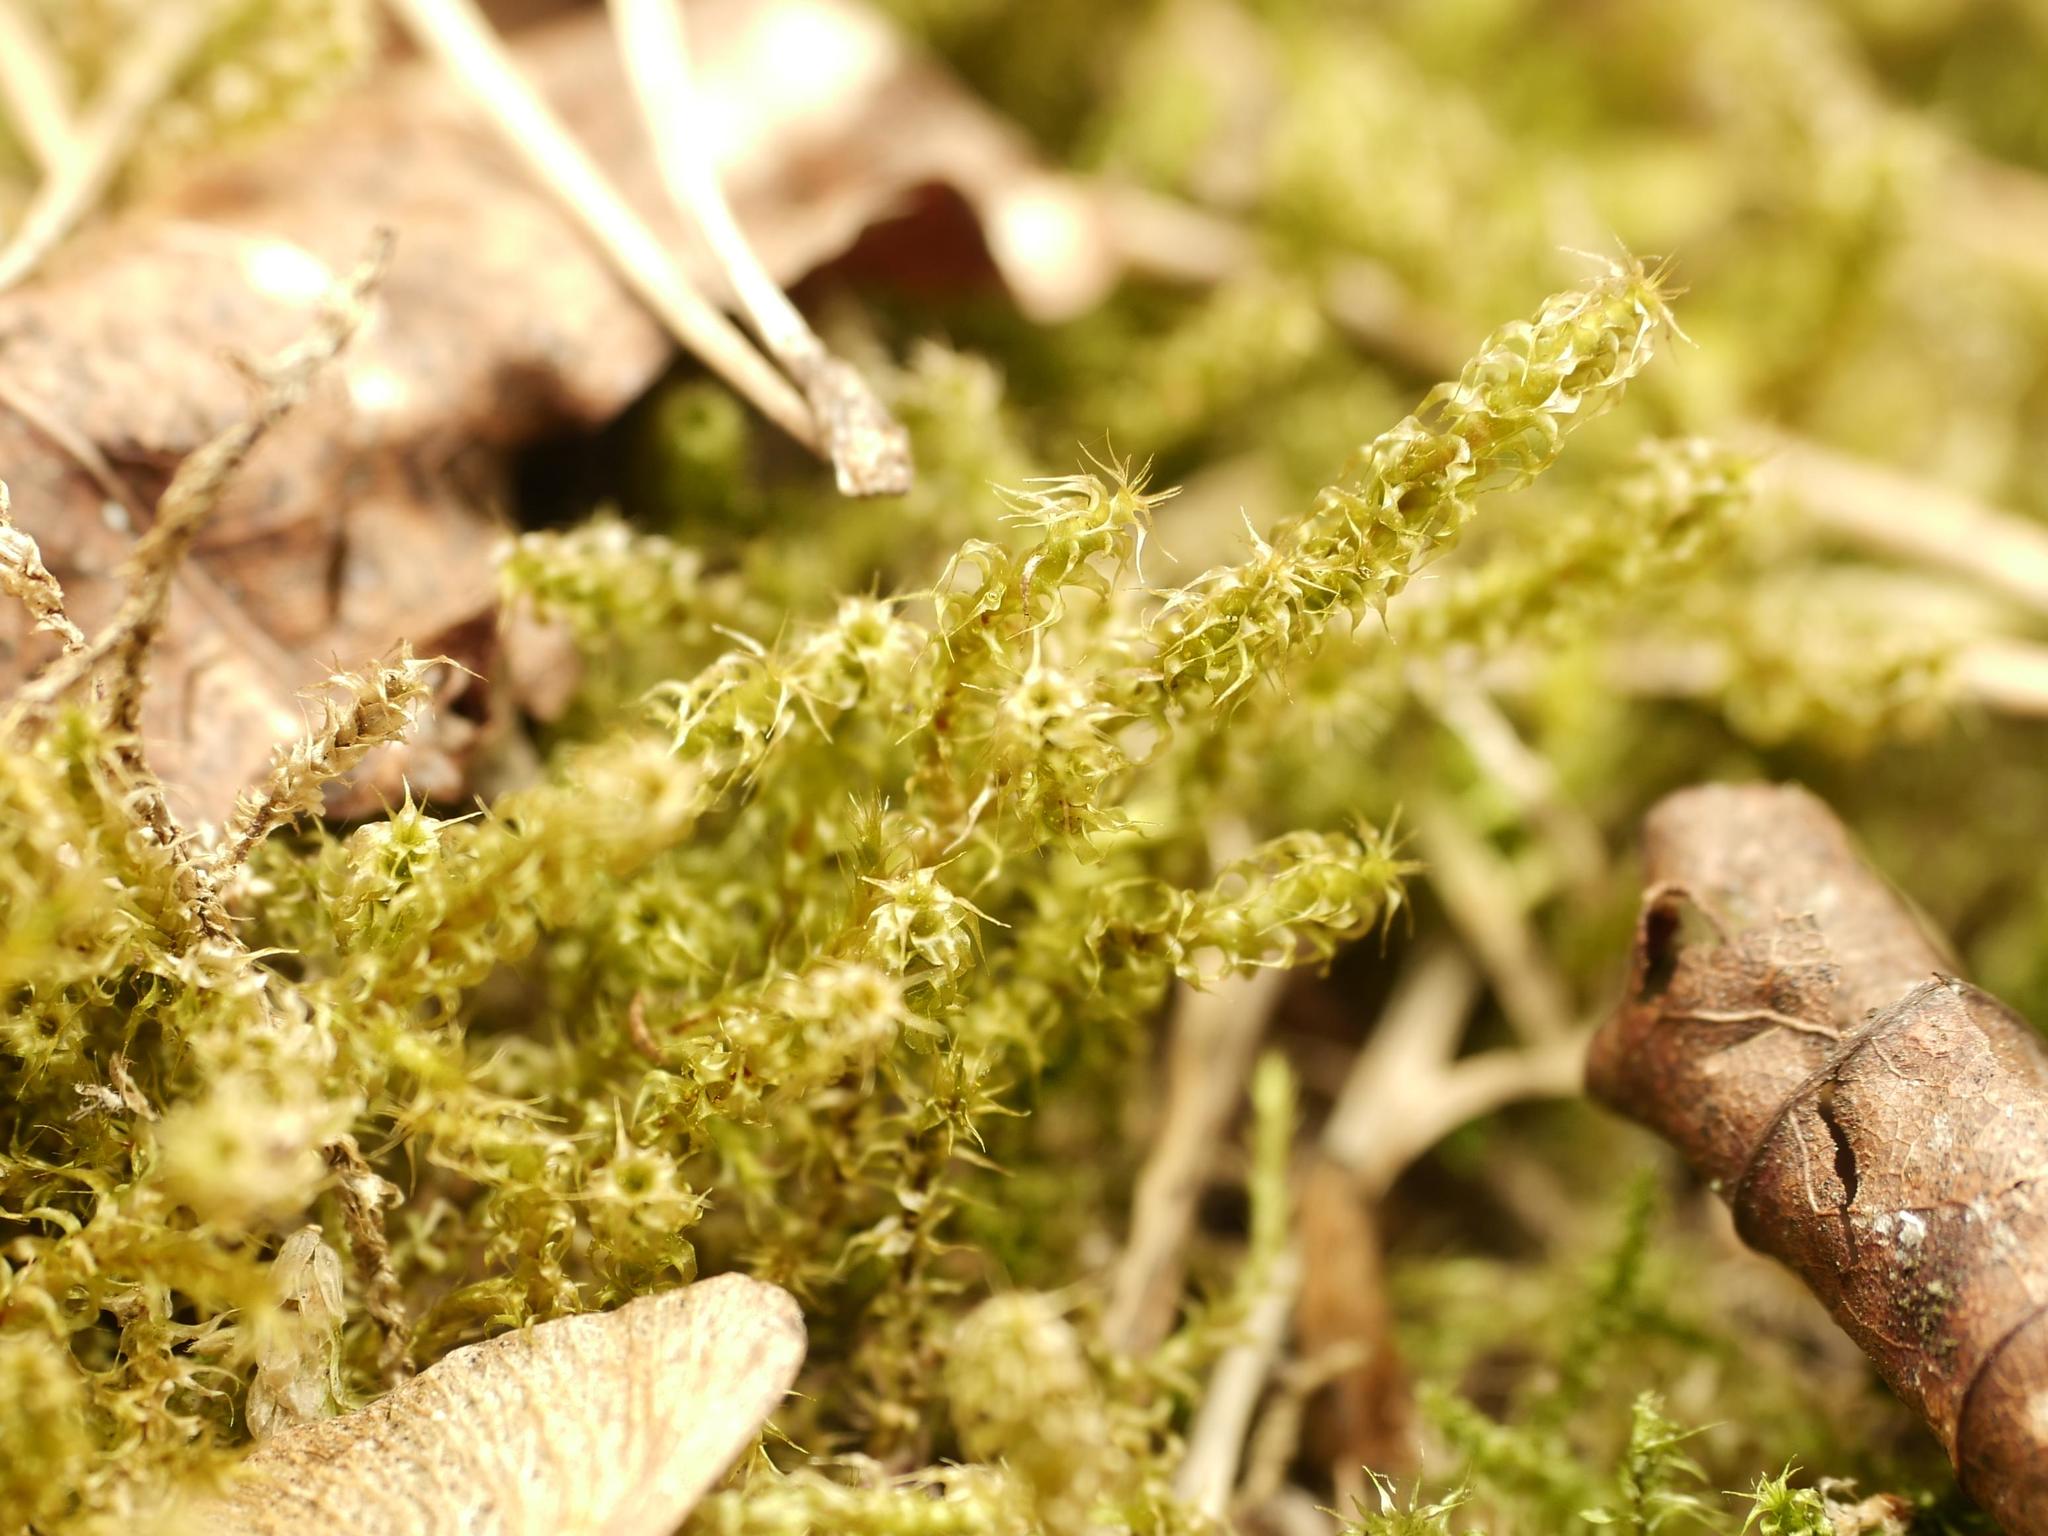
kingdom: Plantae
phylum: Bryophyta
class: Bryopsida
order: Hypnales
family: Hylocomiaceae
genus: Rhytidiadelphus
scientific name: Rhytidiadelphus squarrosus
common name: Springy turf-moss
